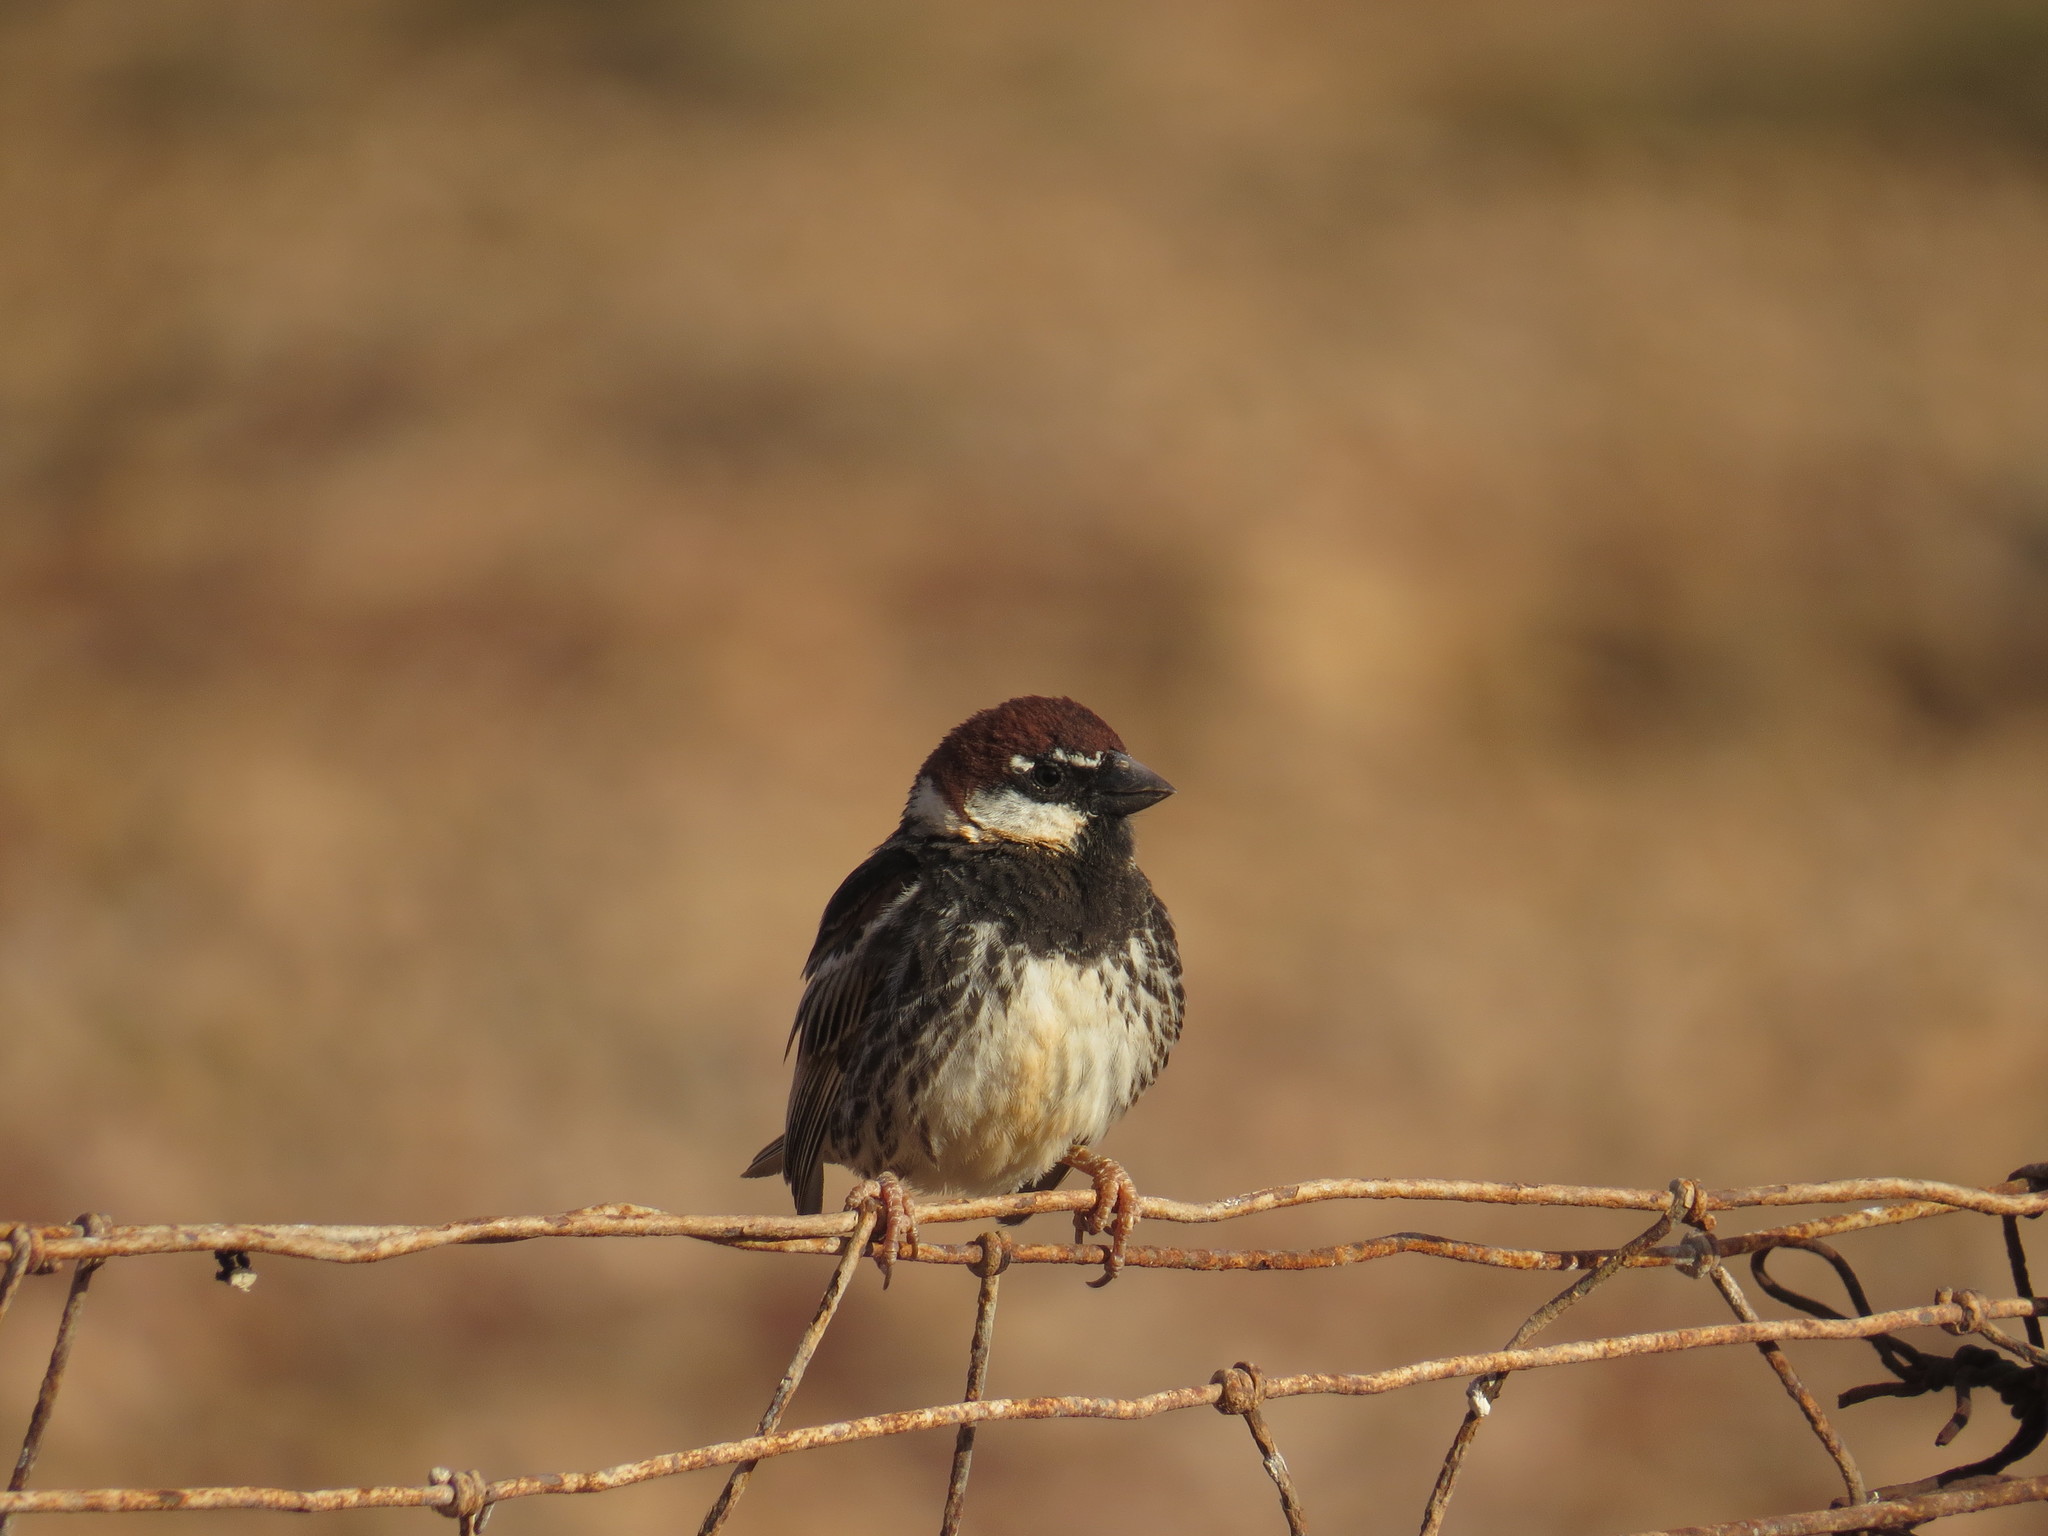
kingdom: Animalia
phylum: Chordata
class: Aves
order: Passeriformes
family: Passeridae
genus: Passer
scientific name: Passer hispaniolensis
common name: Spanish sparrow
